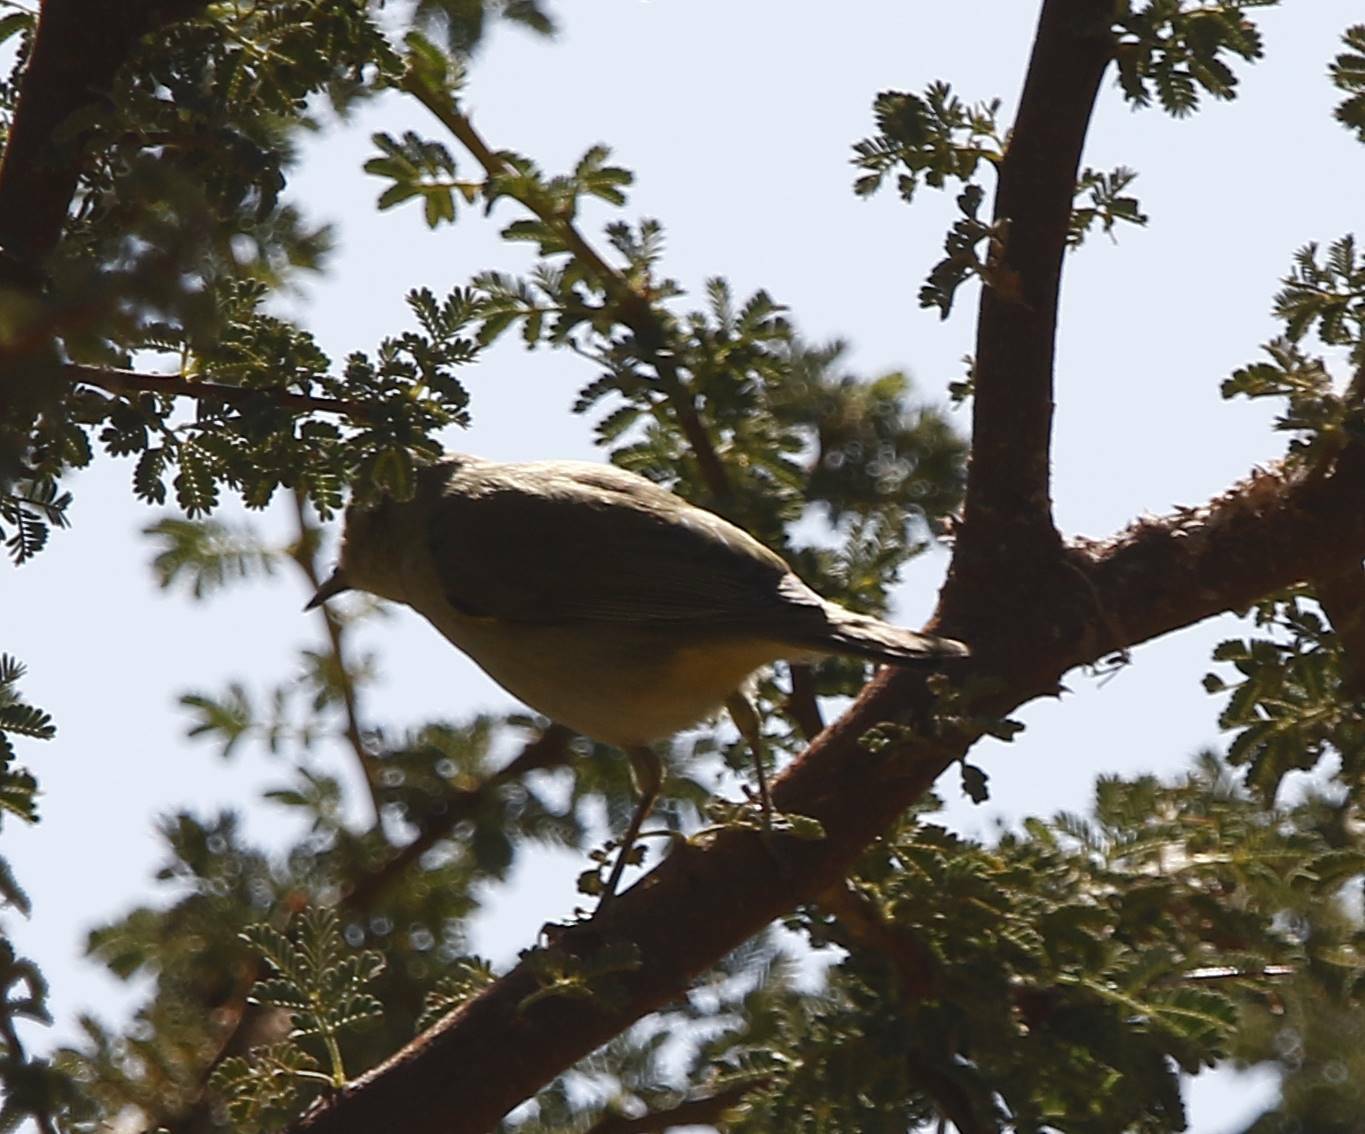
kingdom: Animalia
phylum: Chordata
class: Aves
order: Passeriformes
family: Phylloscopidae
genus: Phylloscopus
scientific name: Phylloscopus collybita
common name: Common chiffchaff
